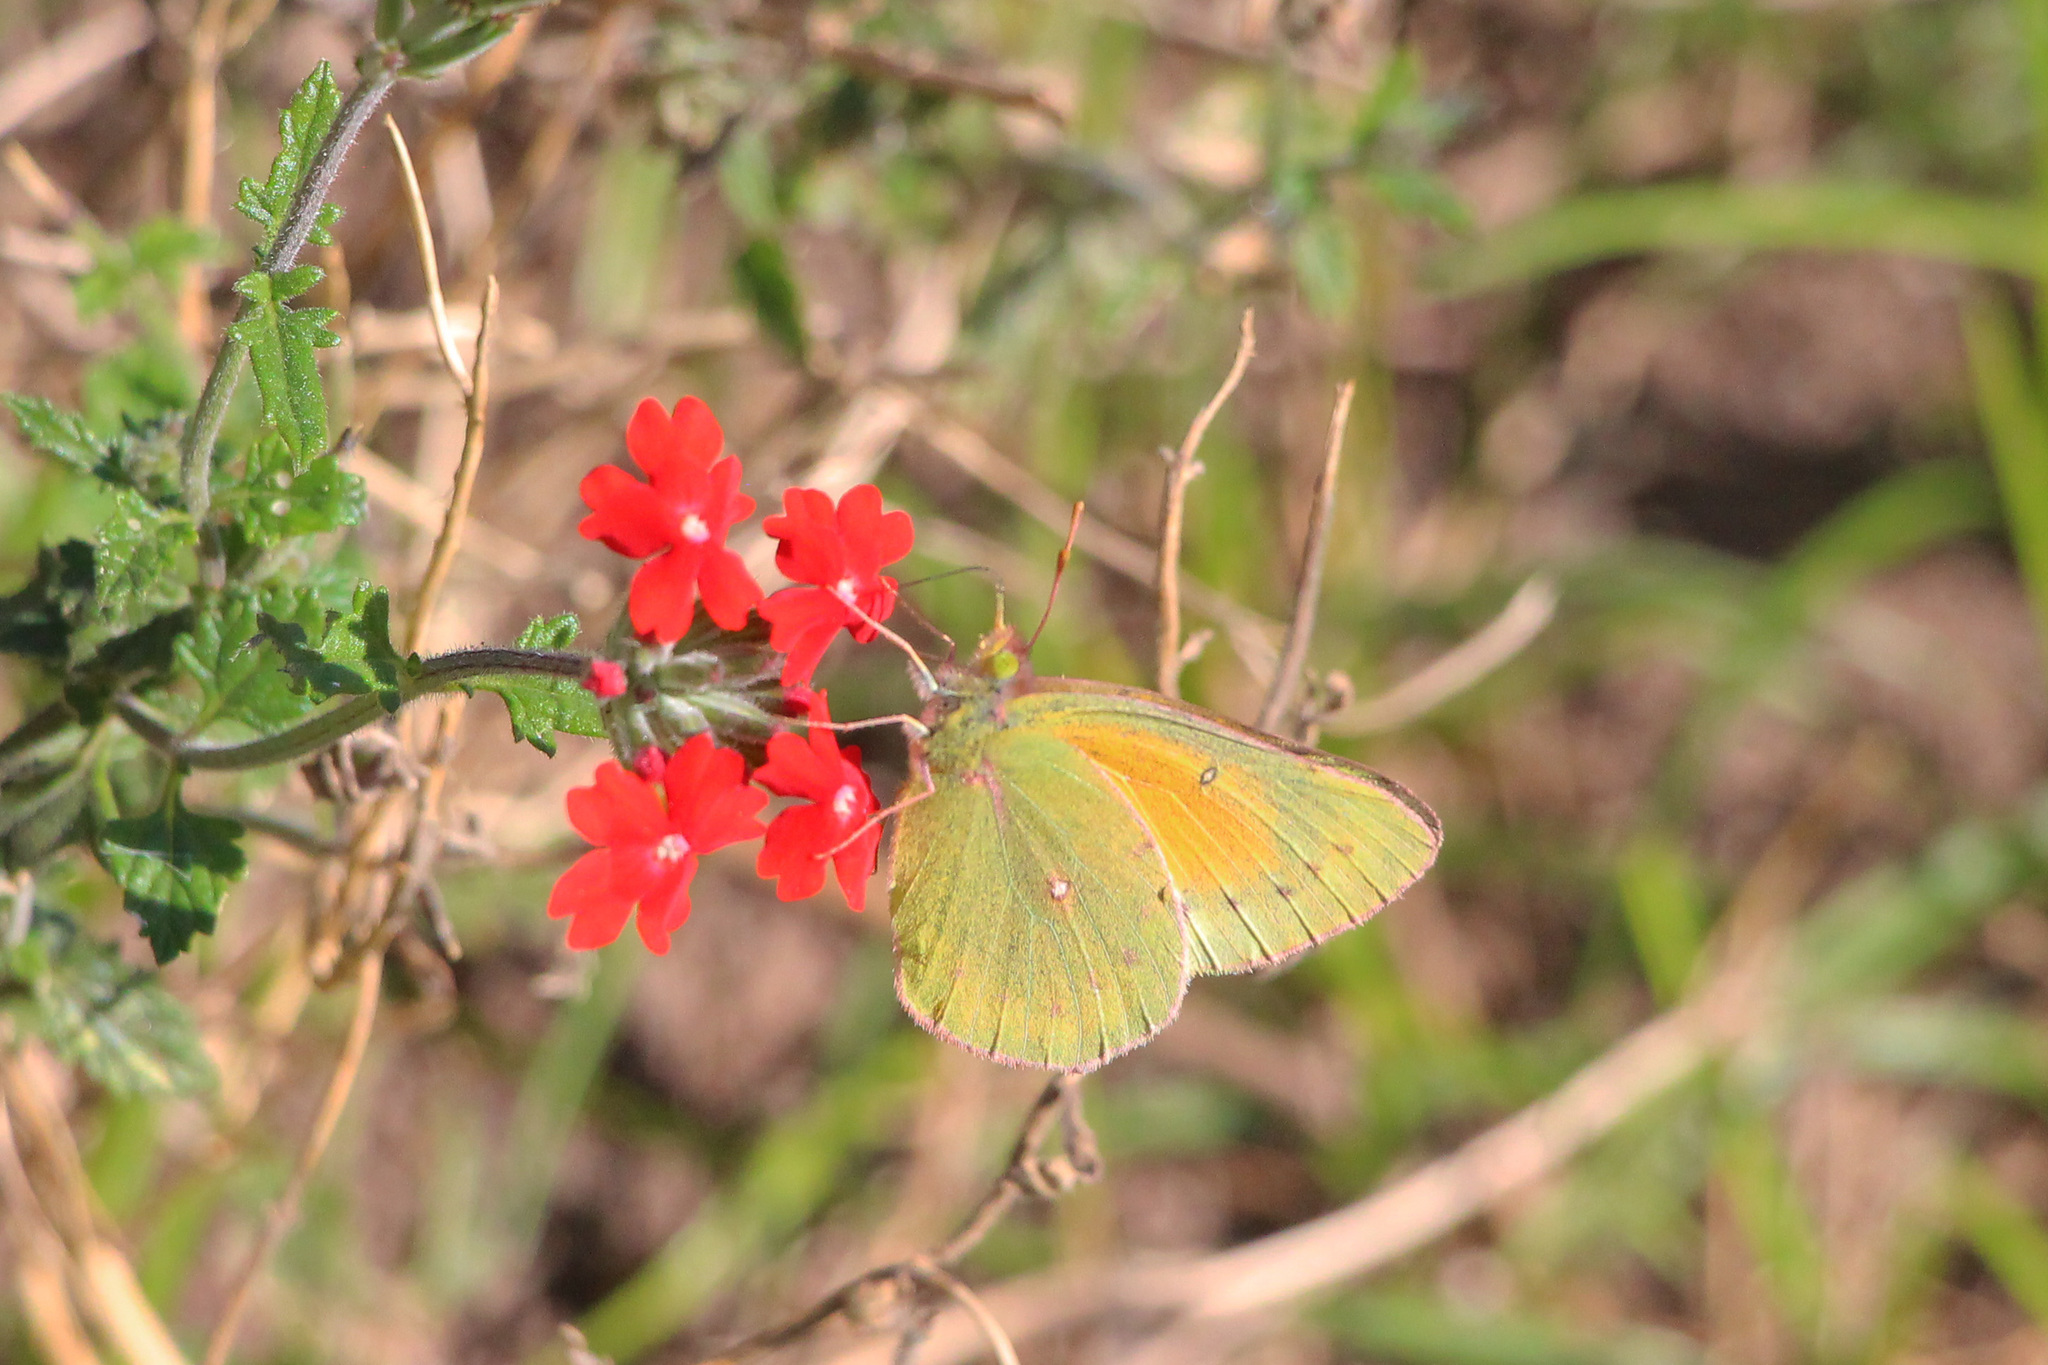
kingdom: Animalia
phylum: Arthropoda
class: Insecta
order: Lepidoptera
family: Pieridae
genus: Colias
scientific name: Colias lesbia
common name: Lesbia clouded yellow
